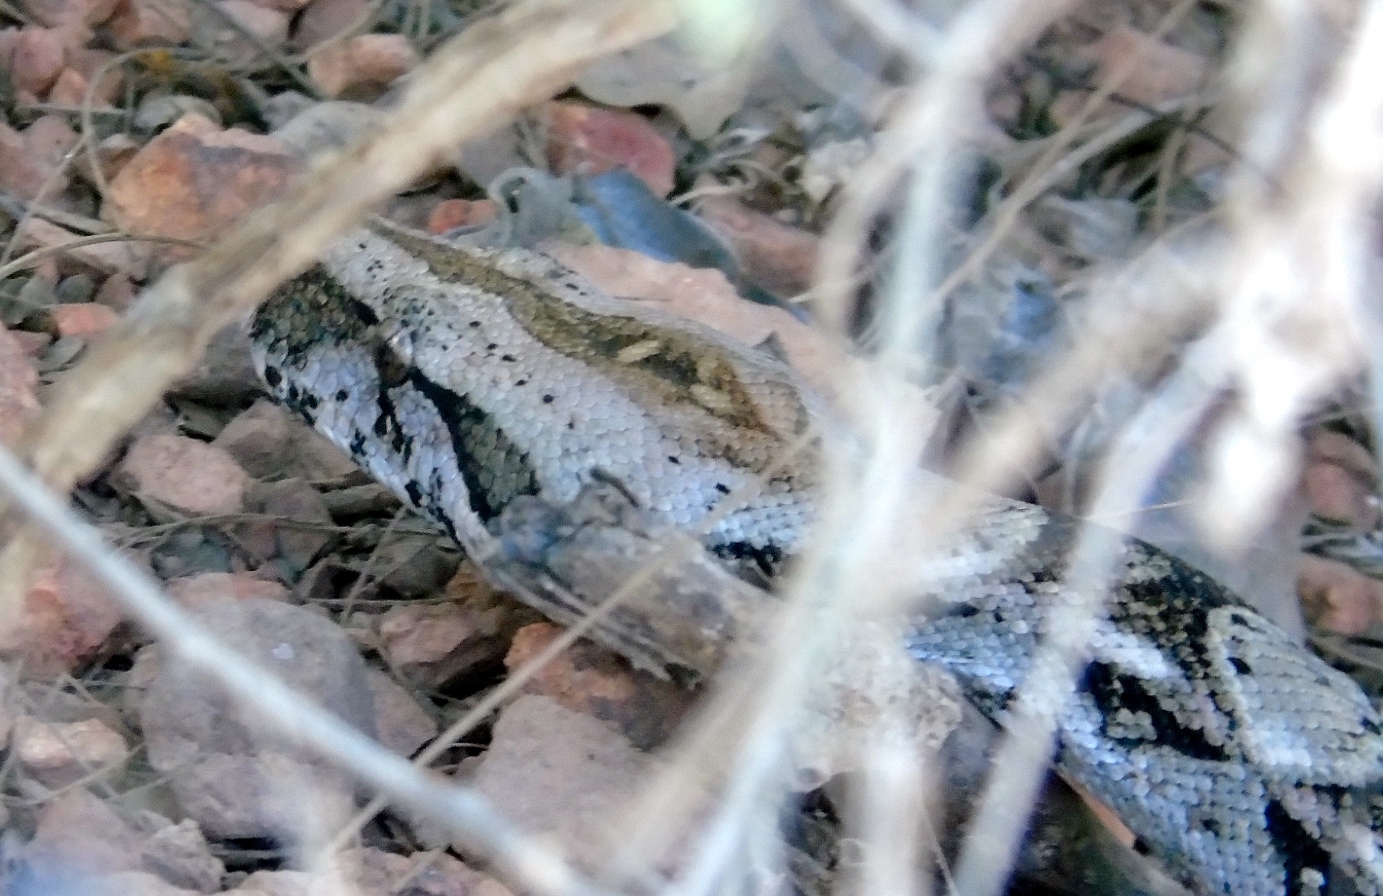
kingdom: Animalia
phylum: Chordata
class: Squamata
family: Boidae
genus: Boa
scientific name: Boa
